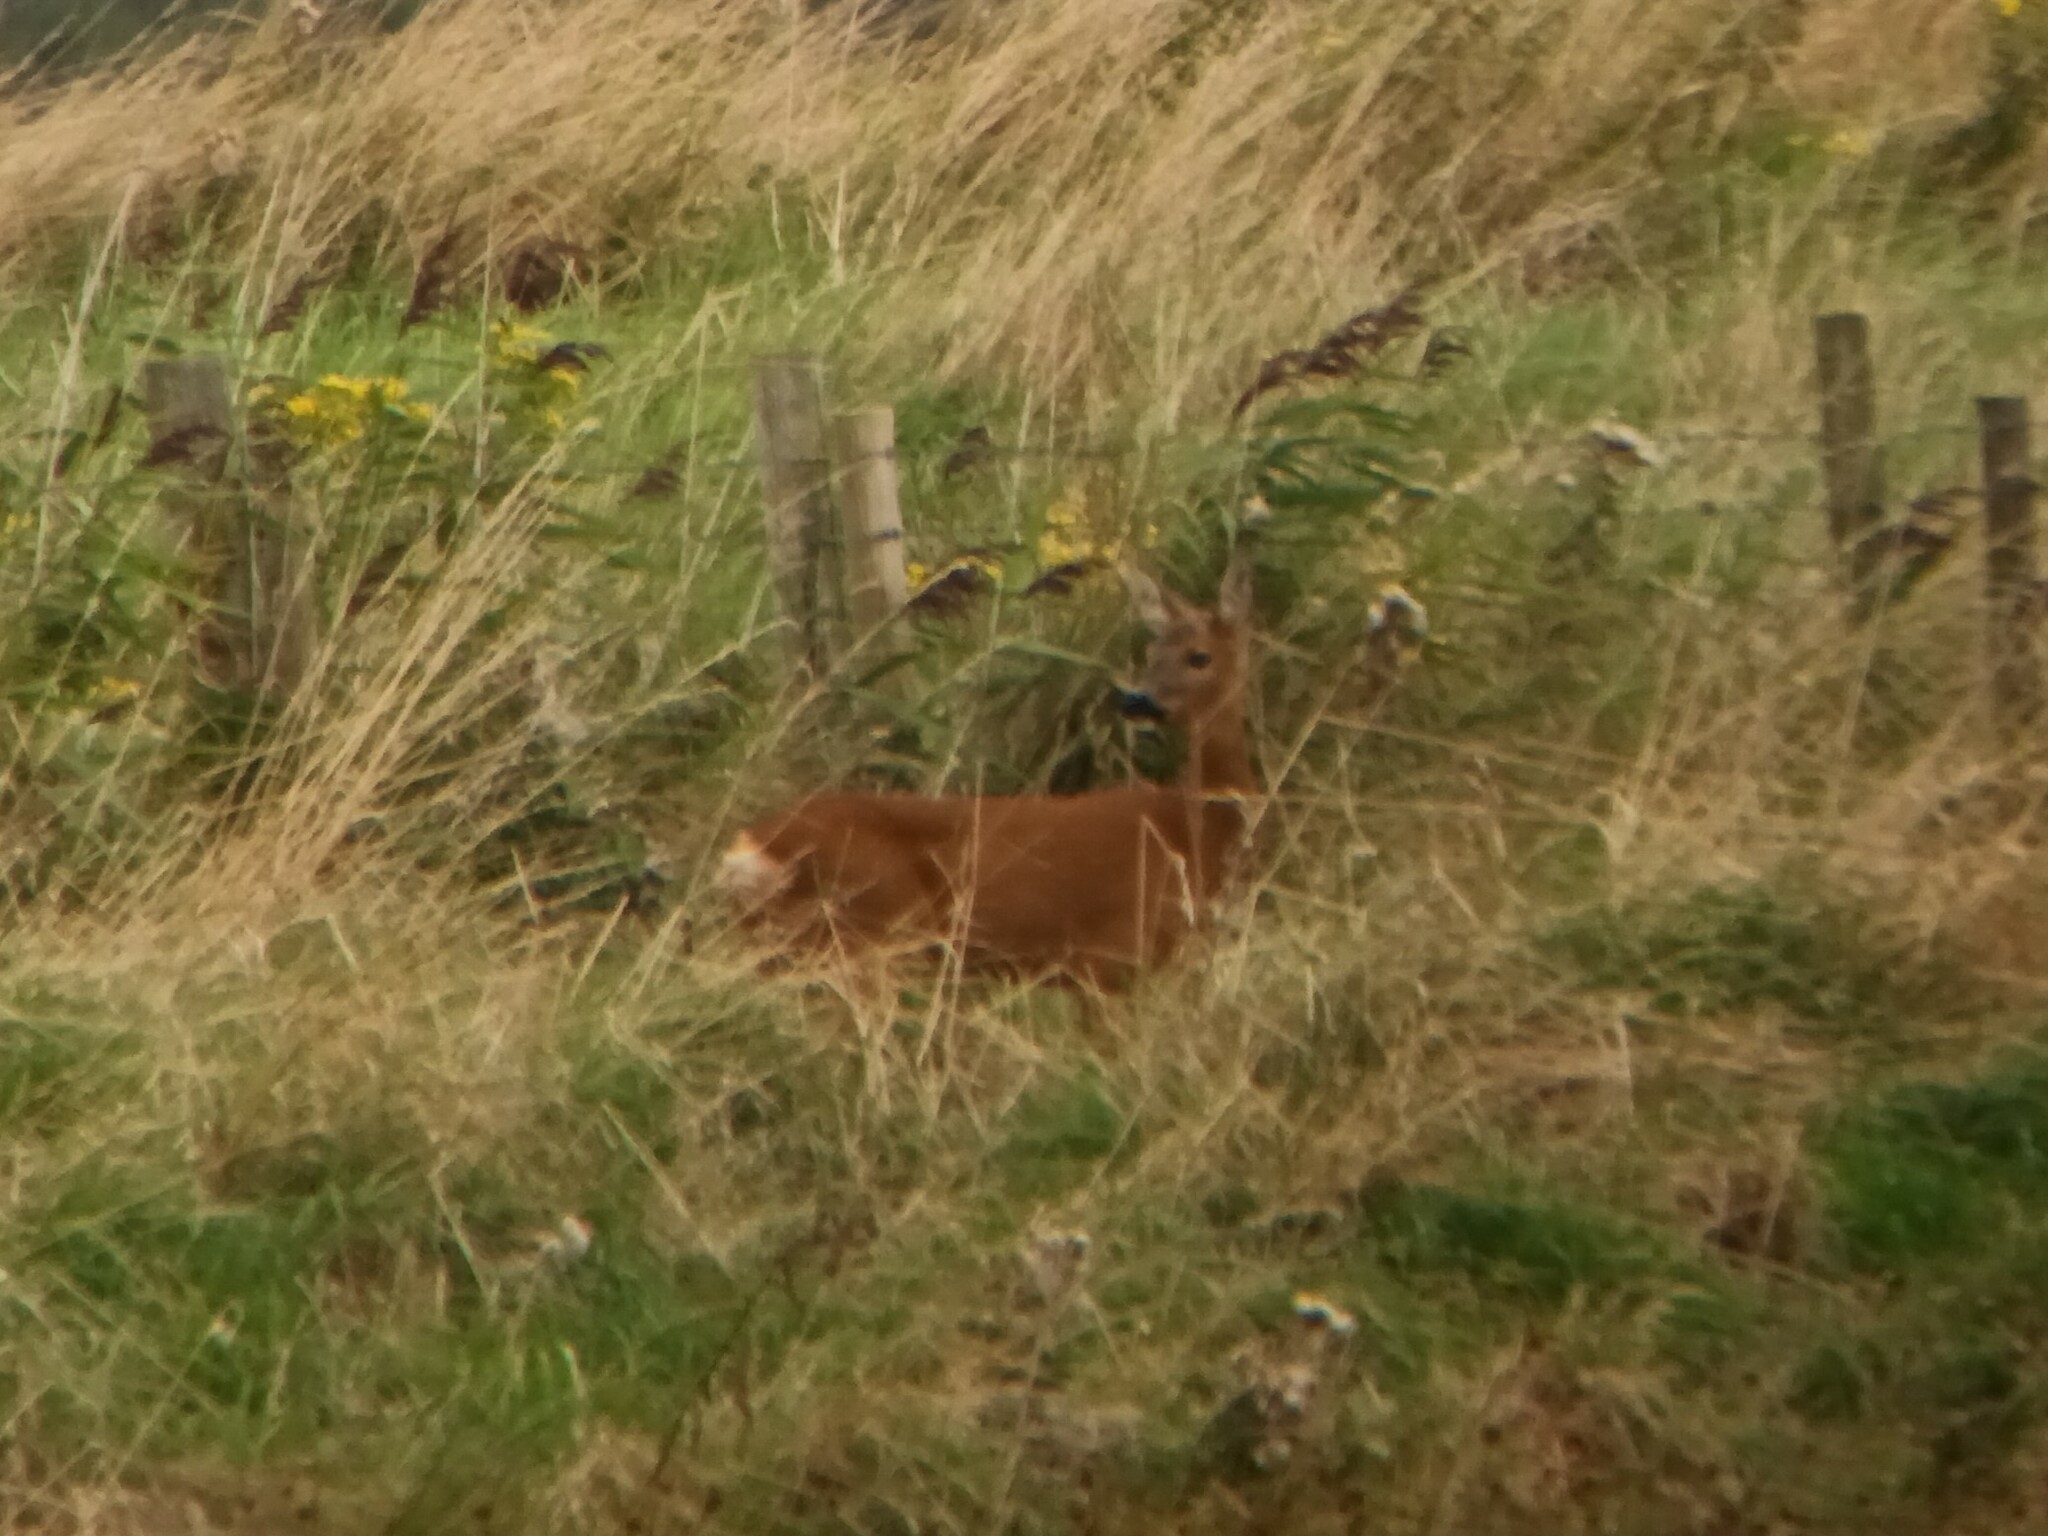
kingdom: Animalia
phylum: Chordata
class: Mammalia
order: Artiodactyla
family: Cervidae
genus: Capreolus
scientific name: Capreolus capreolus
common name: Western roe deer
